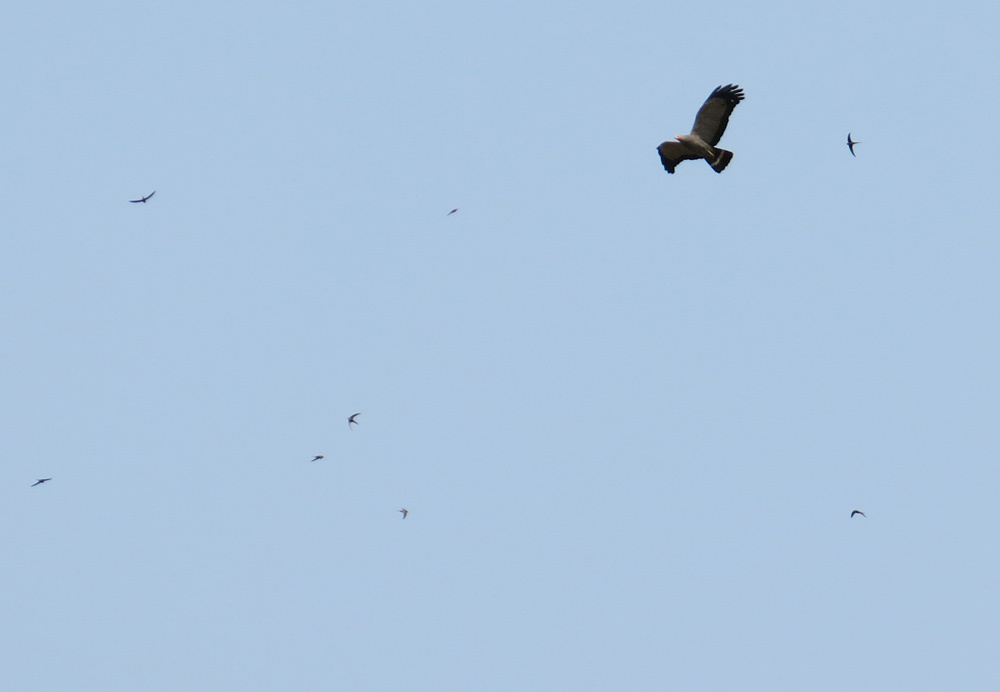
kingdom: Animalia
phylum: Chordata
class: Aves
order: Apodiformes
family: Apodidae
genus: Cypsiurus
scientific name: Cypsiurus parvus
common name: African palm swift
